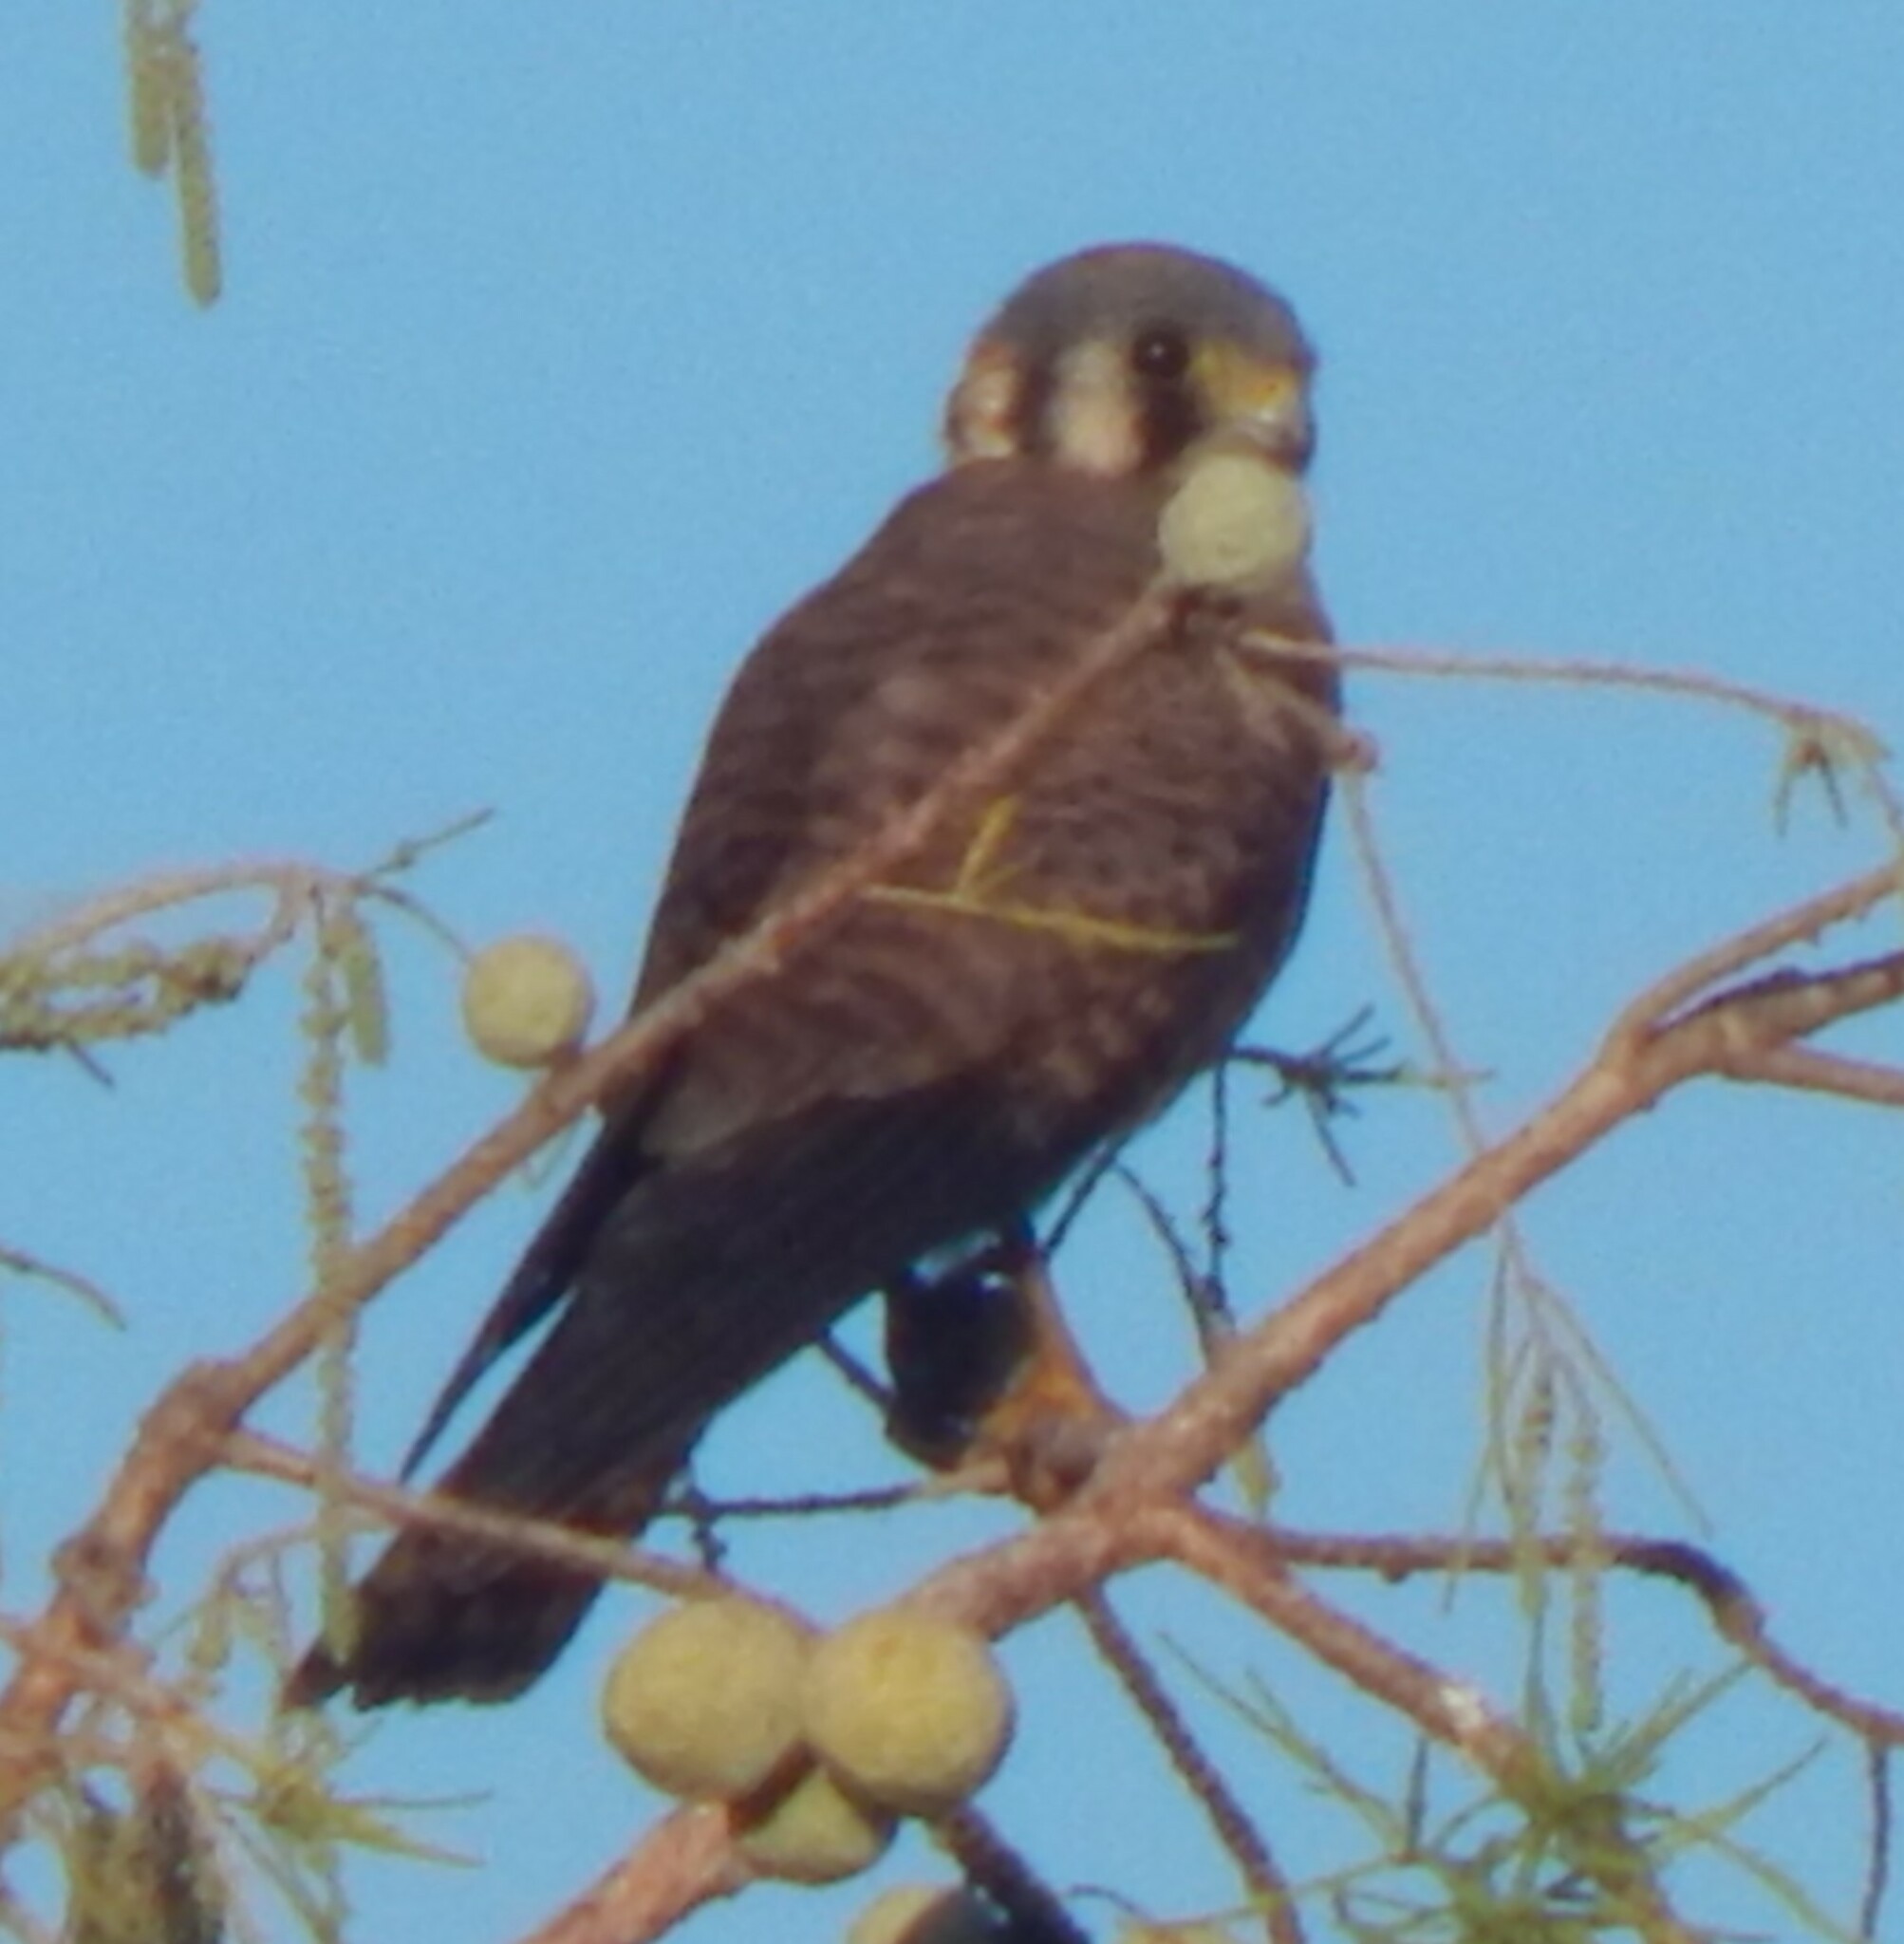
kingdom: Animalia
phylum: Chordata
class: Aves
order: Falconiformes
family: Falconidae
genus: Falco
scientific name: Falco sparverius
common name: American kestrel
